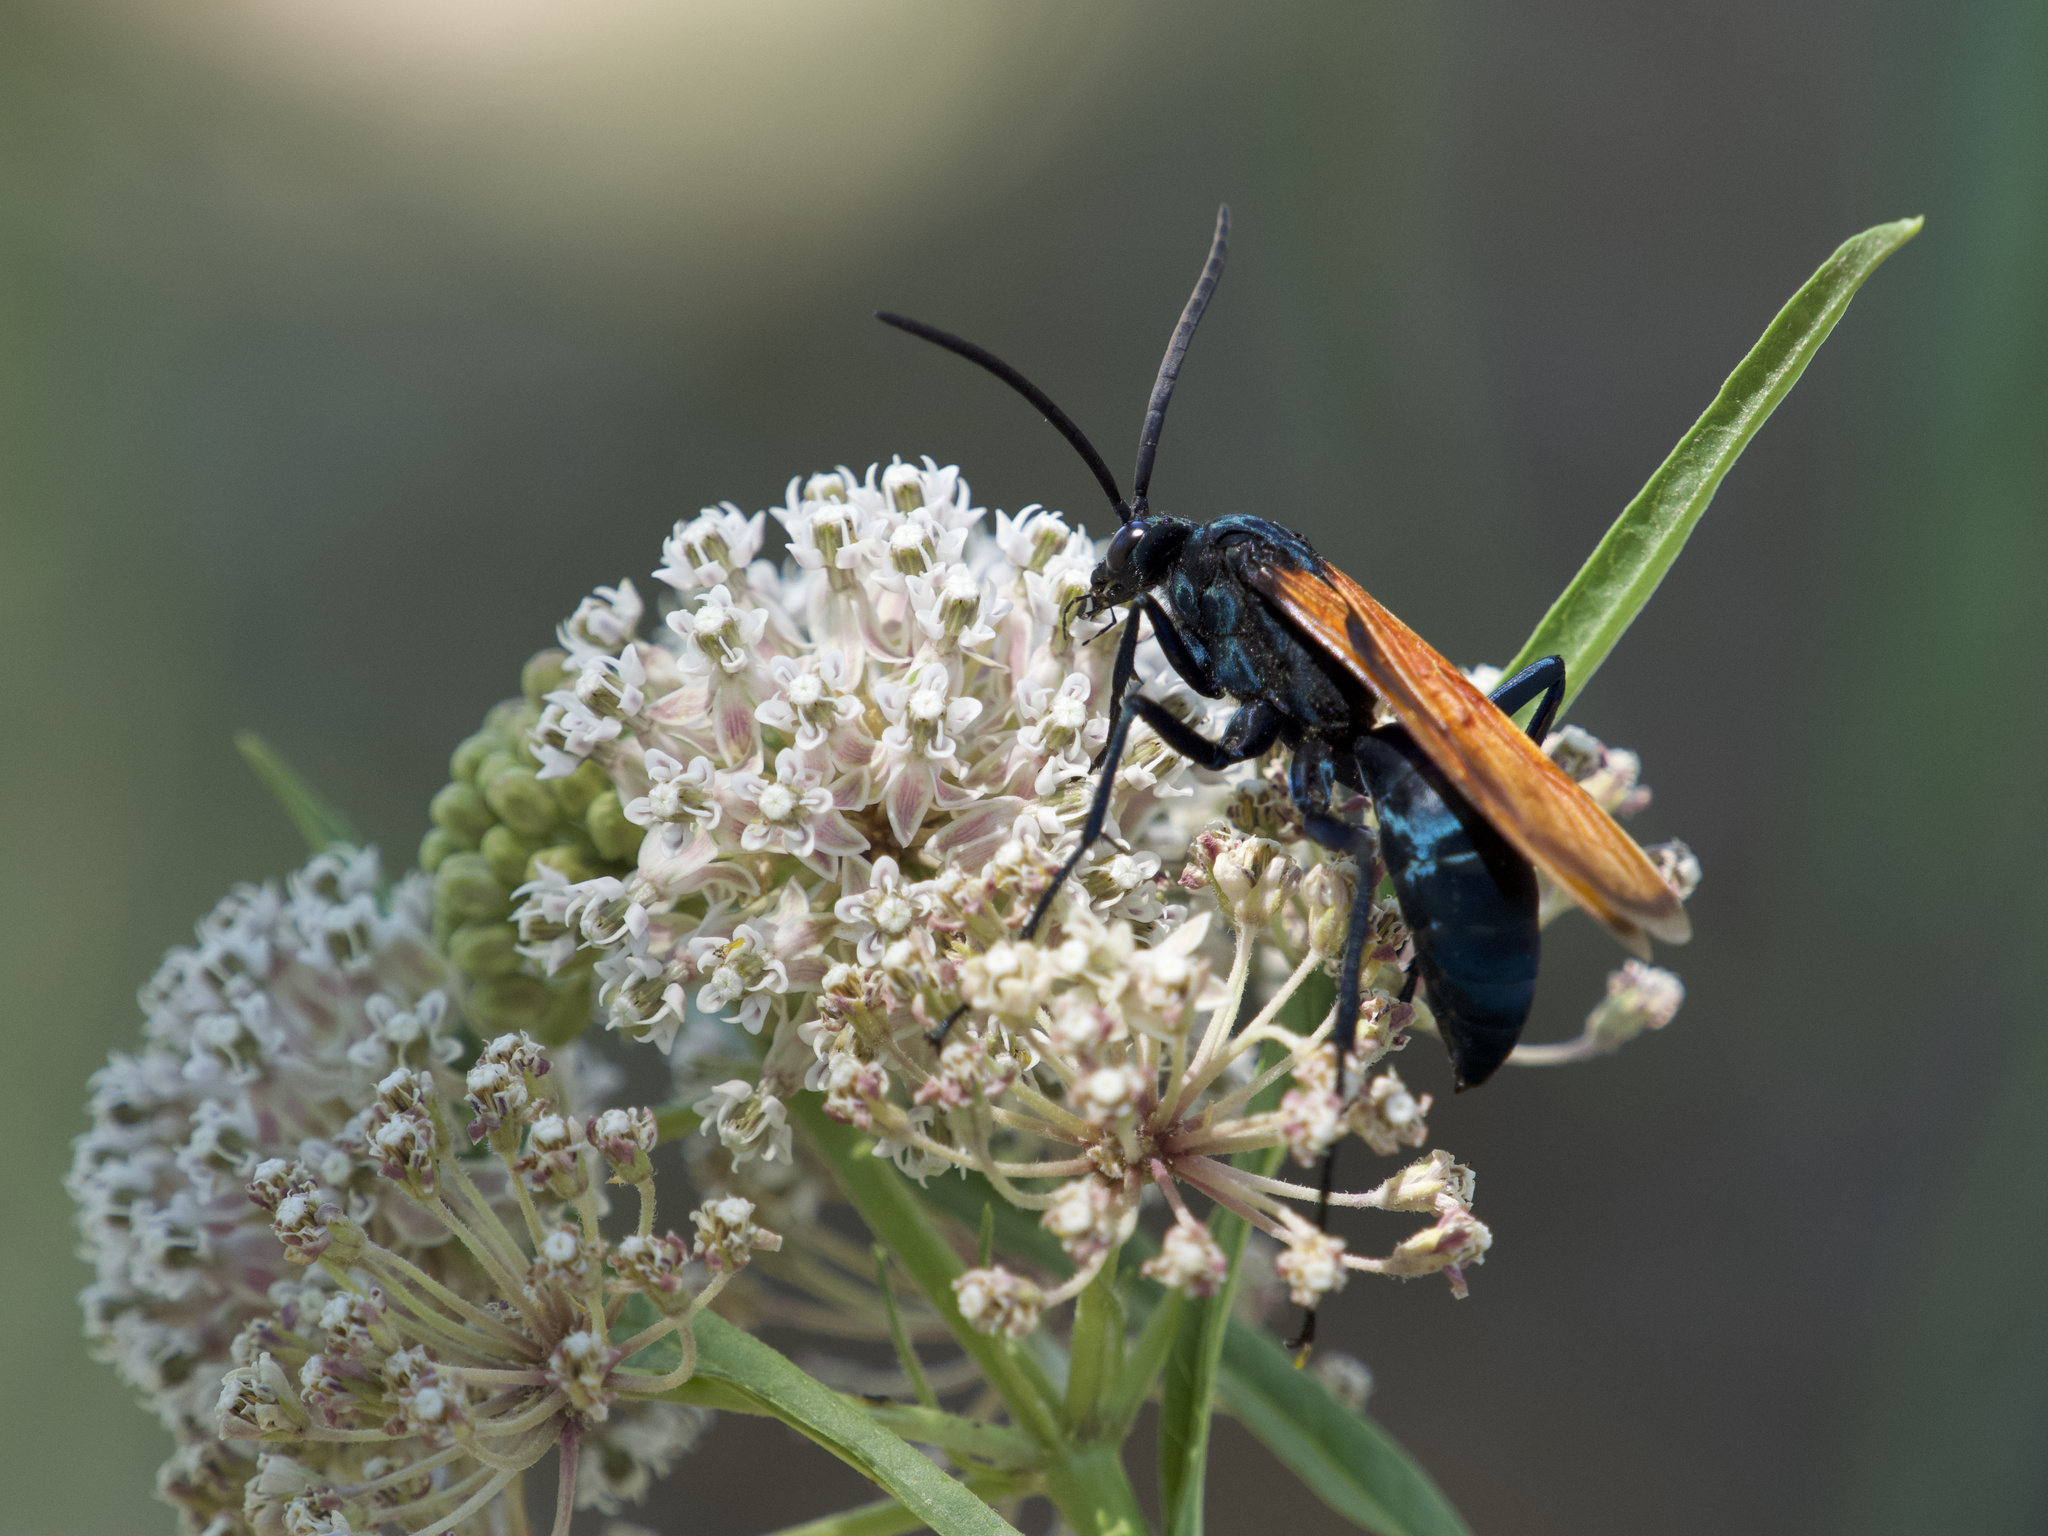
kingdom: Animalia
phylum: Arthropoda
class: Insecta
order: Hymenoptera
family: Pompilidae
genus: Pepsis
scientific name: Pepsis thisbe
